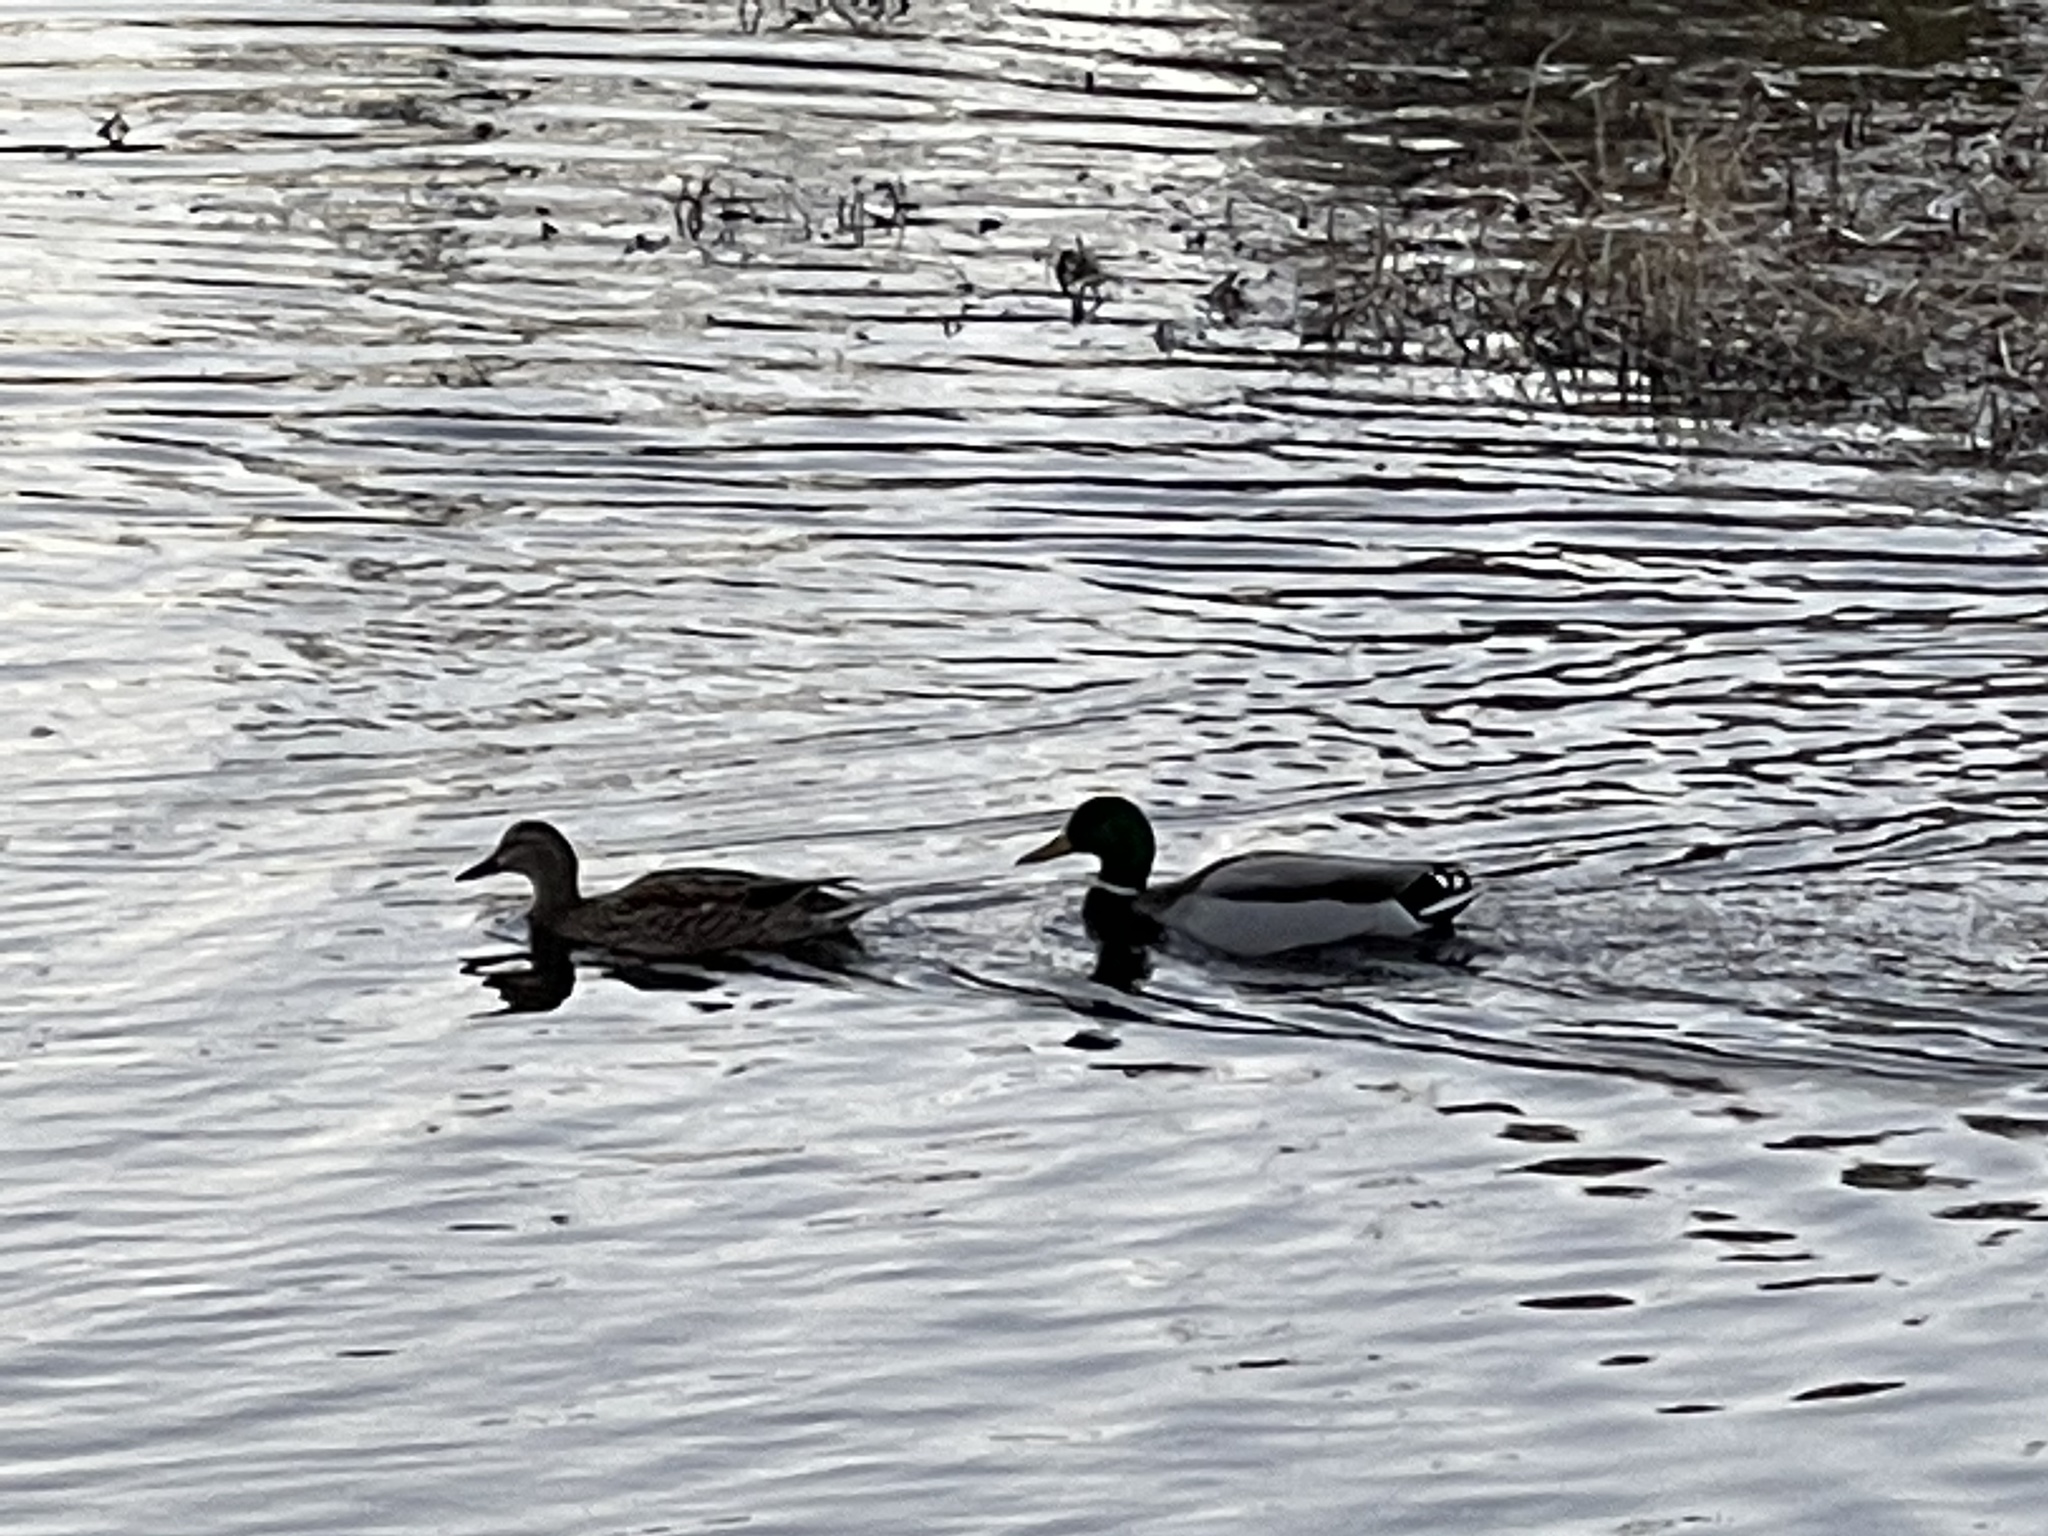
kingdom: Animalia
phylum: Chordata
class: Aves
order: Anseriformes
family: Anatidae
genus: Anas
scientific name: Anas platyrhynchos
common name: Mallard
